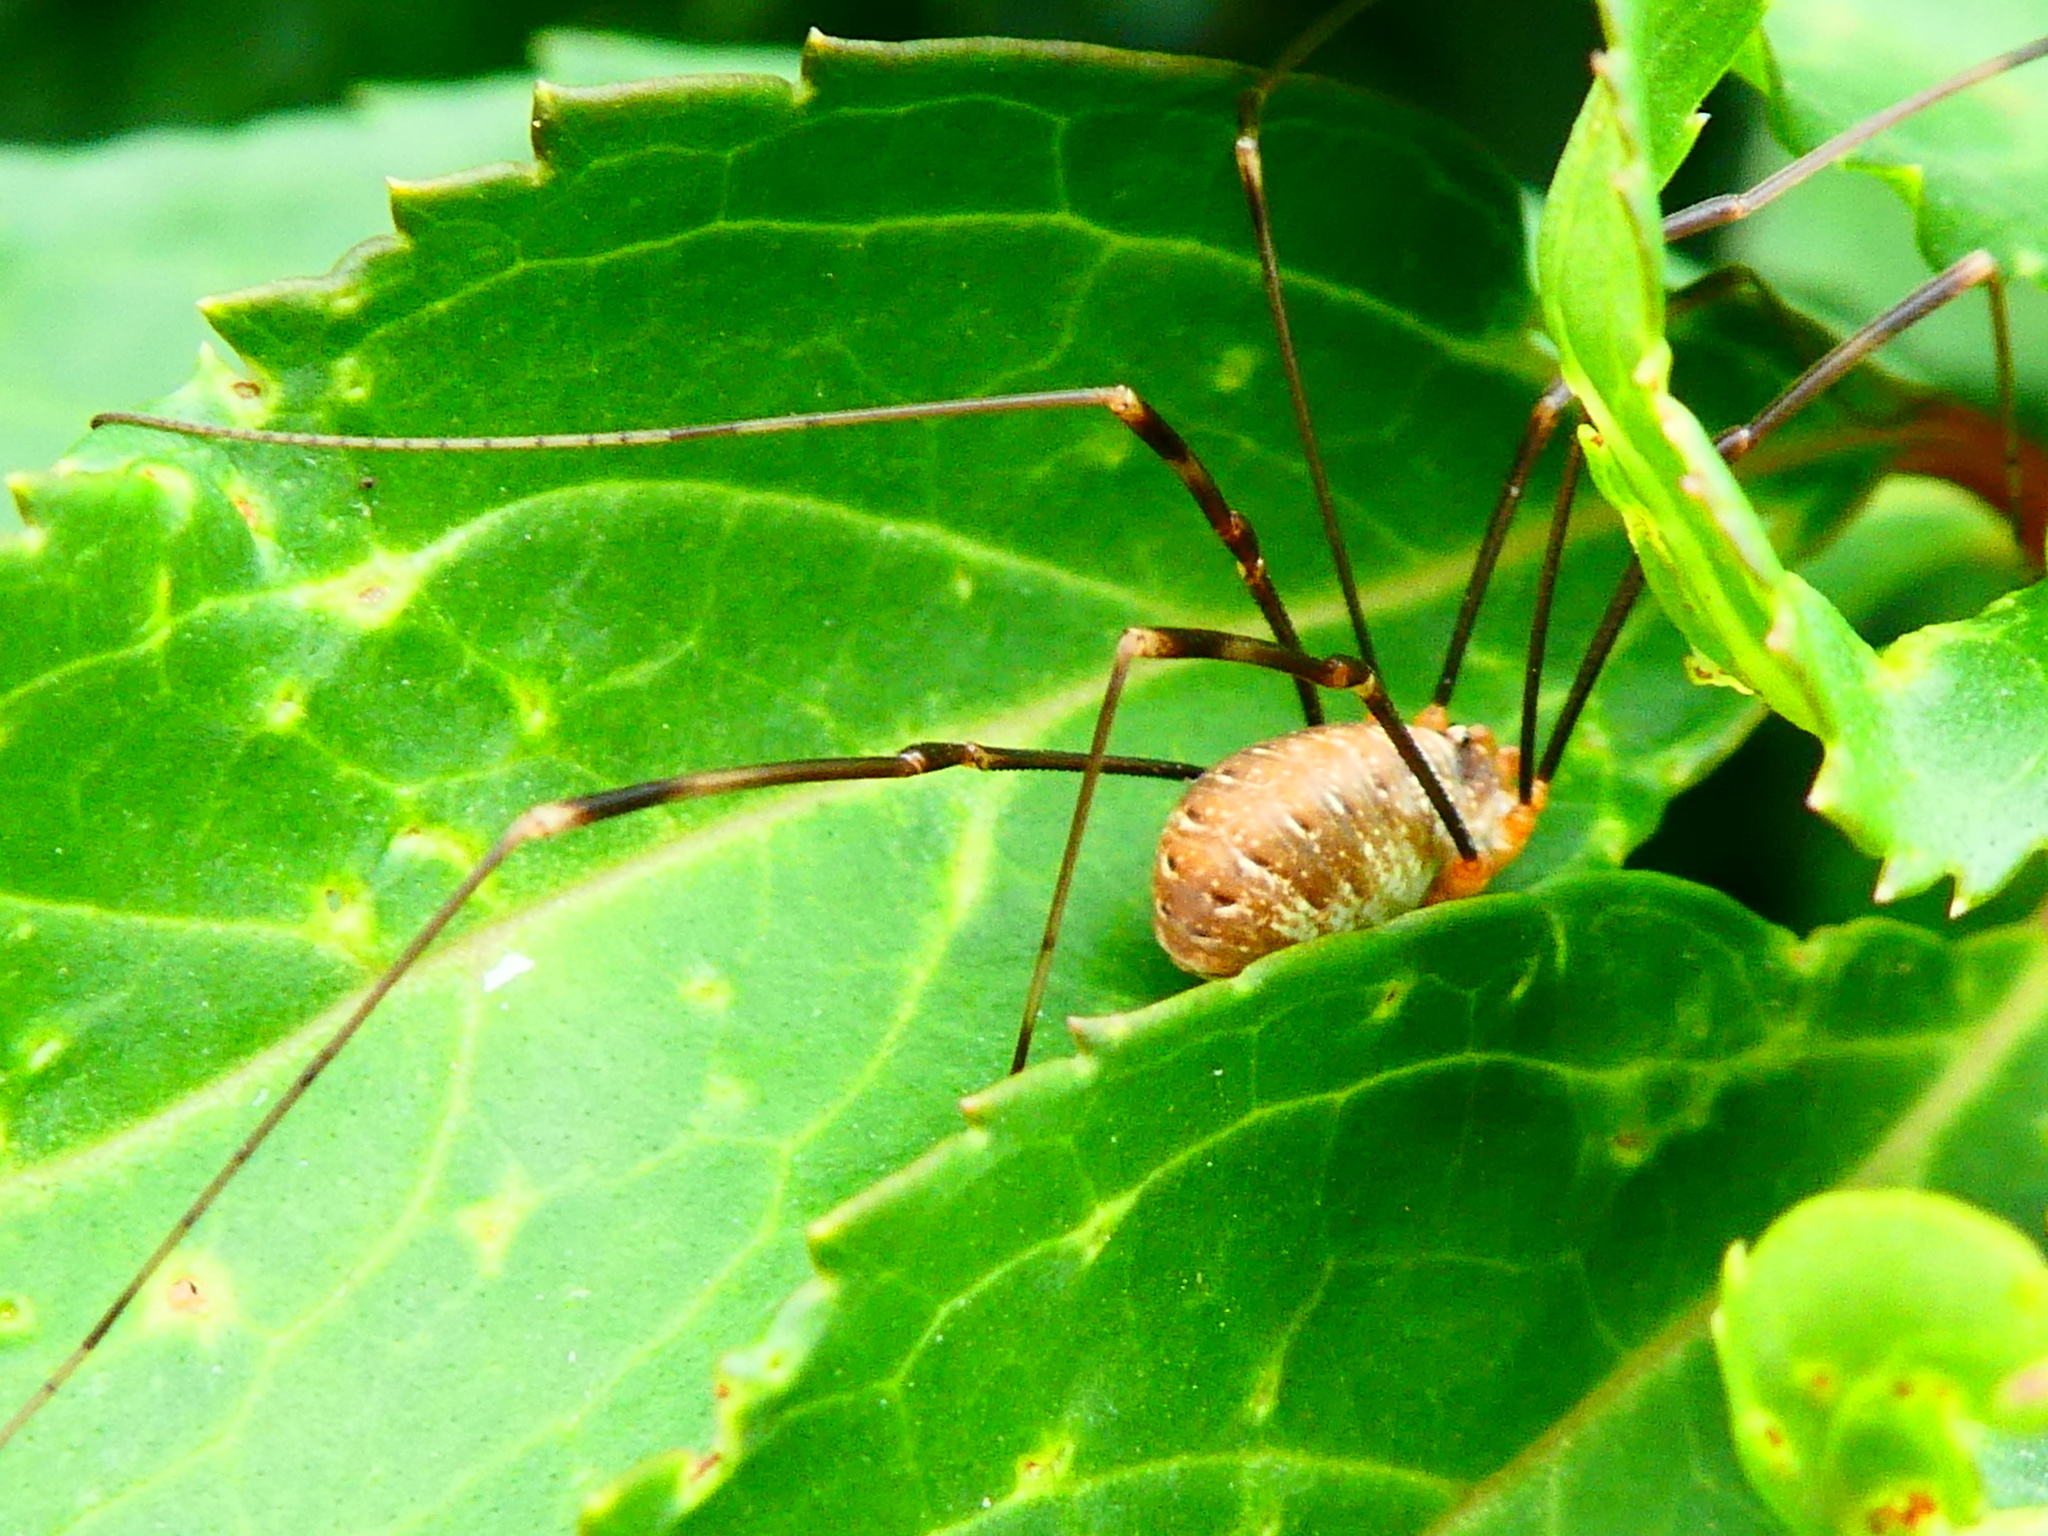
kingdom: Animalia
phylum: Arthropoda
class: Arachnida
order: Opiliones
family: Phalangiidae
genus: Opilio
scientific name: Opilio canestrinii
